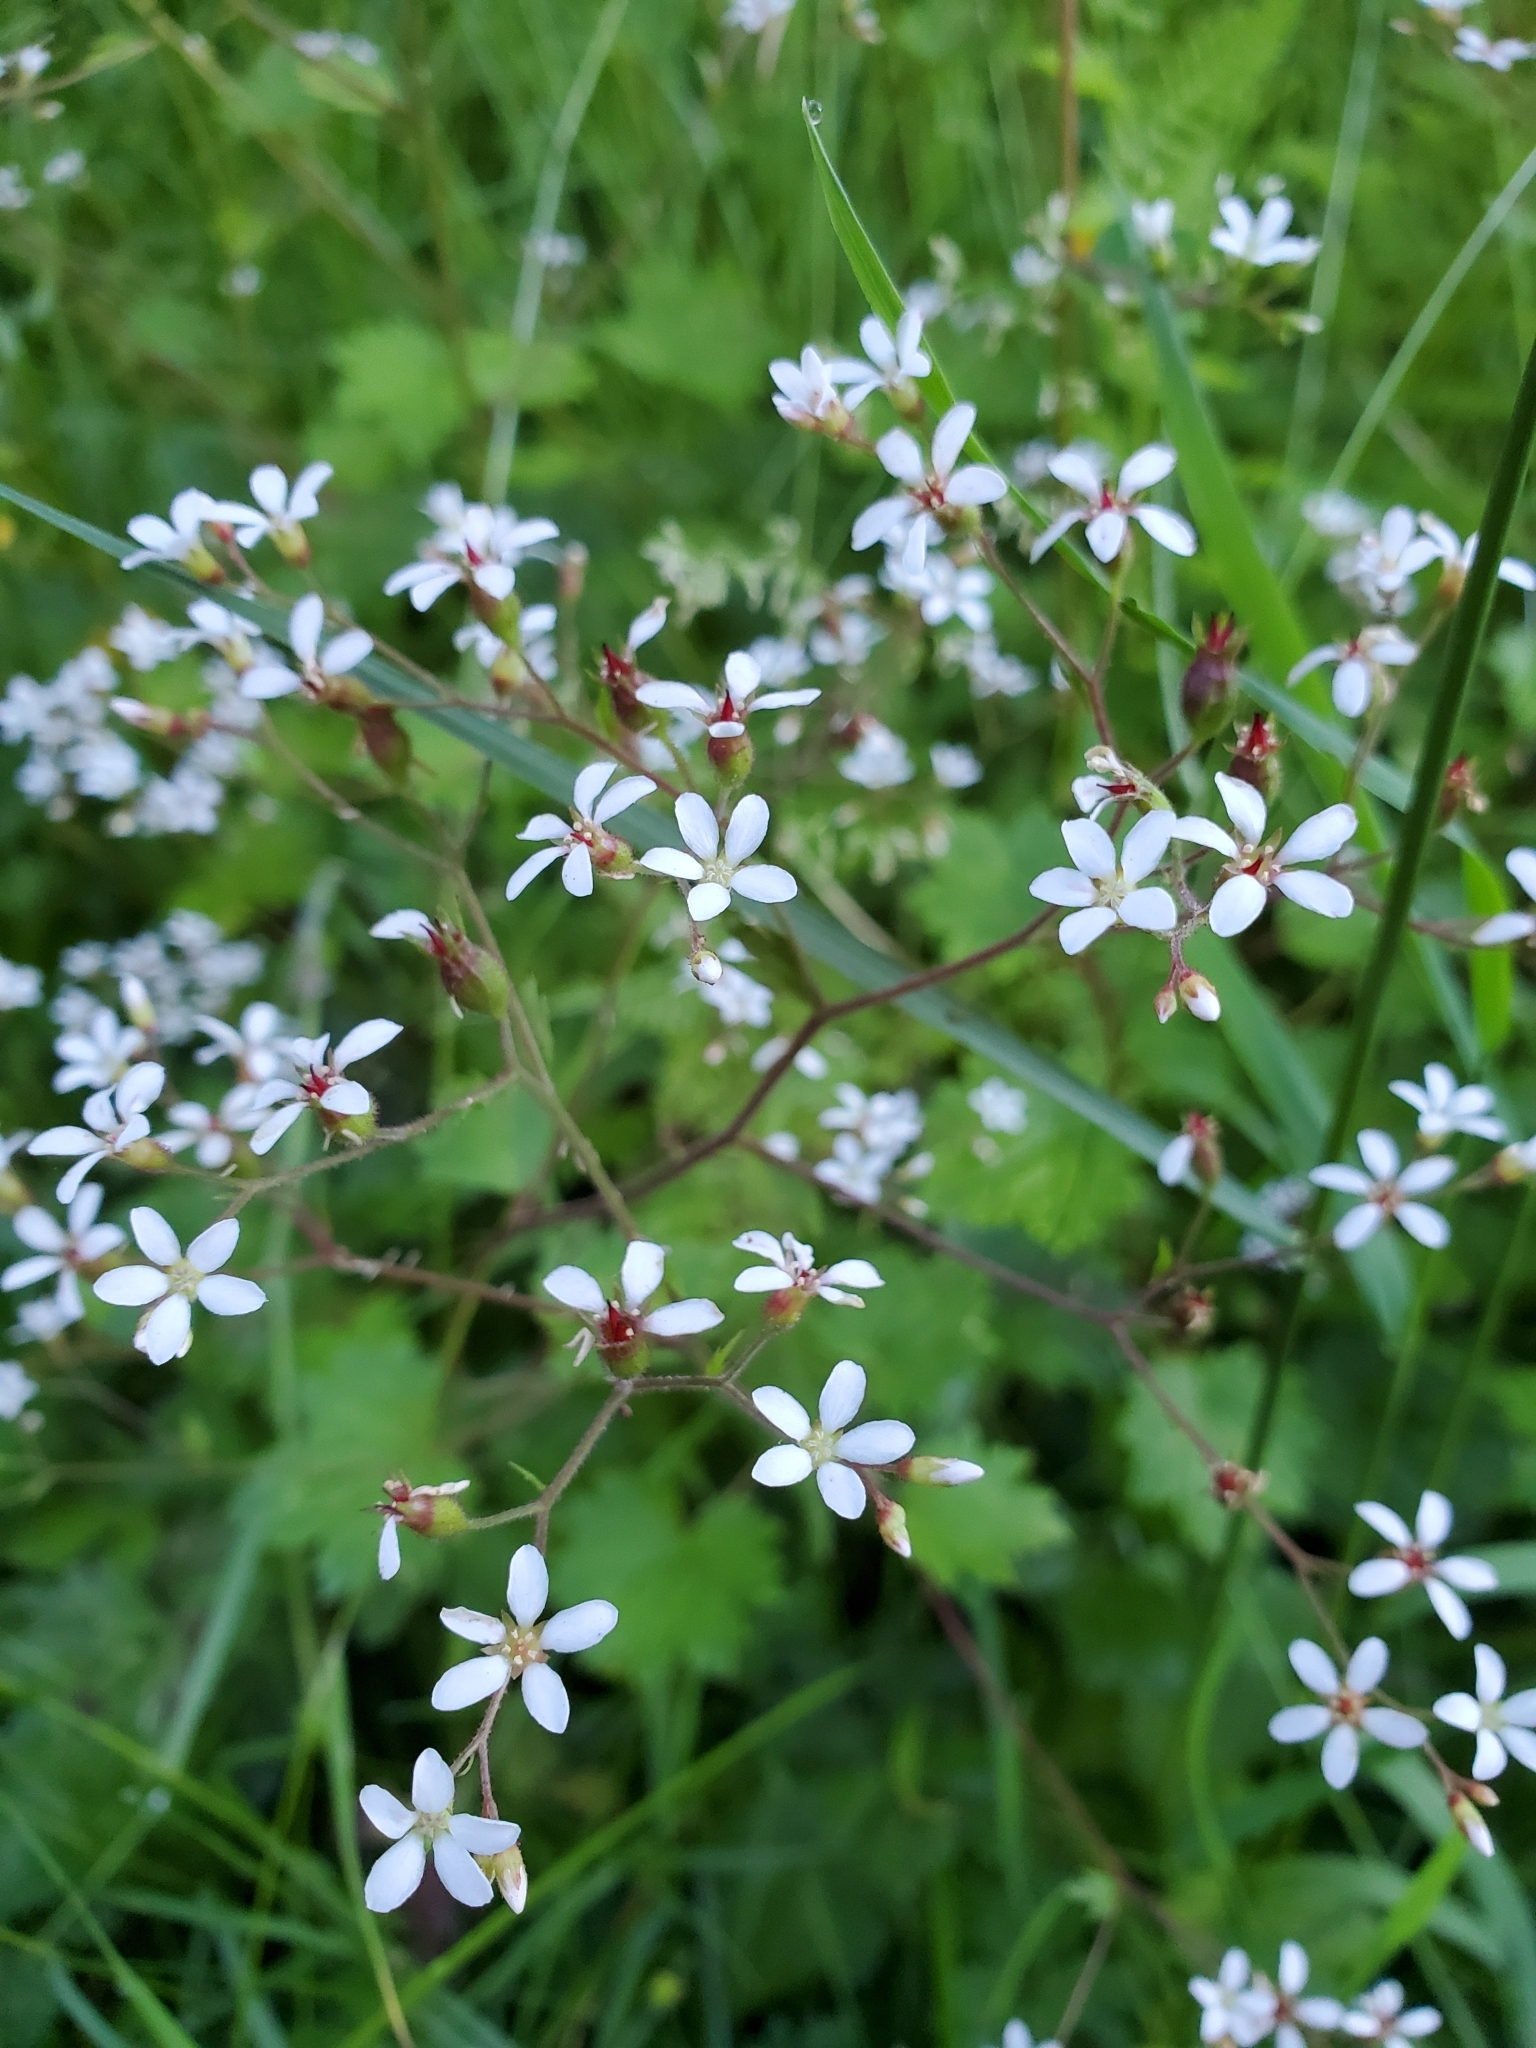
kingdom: Plantae
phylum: Tracheophyta
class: Magnoliopsida
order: Saxifragales
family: Saxifragaceae
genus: Boykinia
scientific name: Boykinia occidentalis
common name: Coast boykinia
